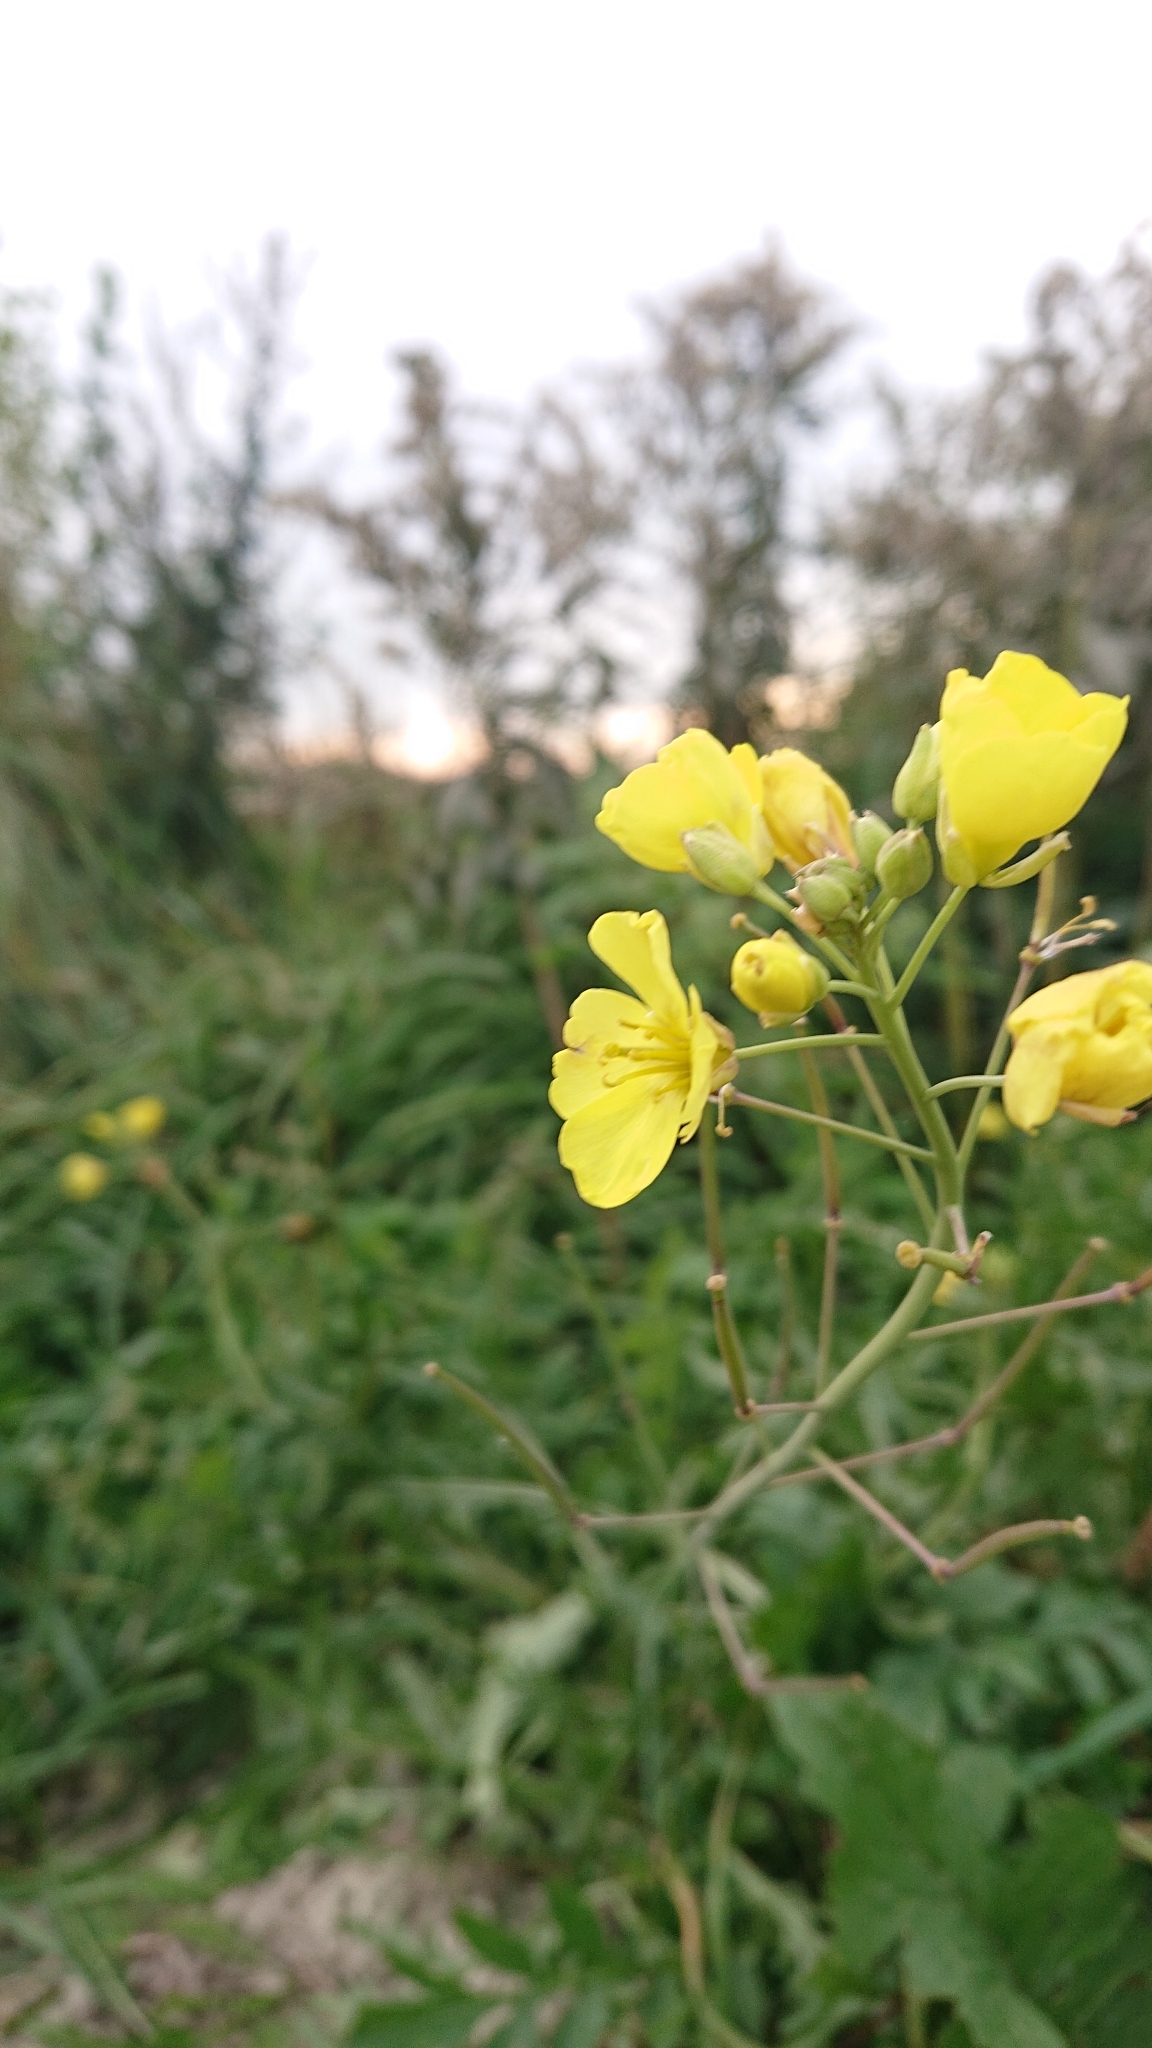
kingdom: Plantae
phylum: Tracheophyta
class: Magnoliopsida
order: Brassicales
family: Brassicaceae
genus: Diplotaxis
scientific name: Diplotaxis tenuifolia
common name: Perennial wall-rocket
